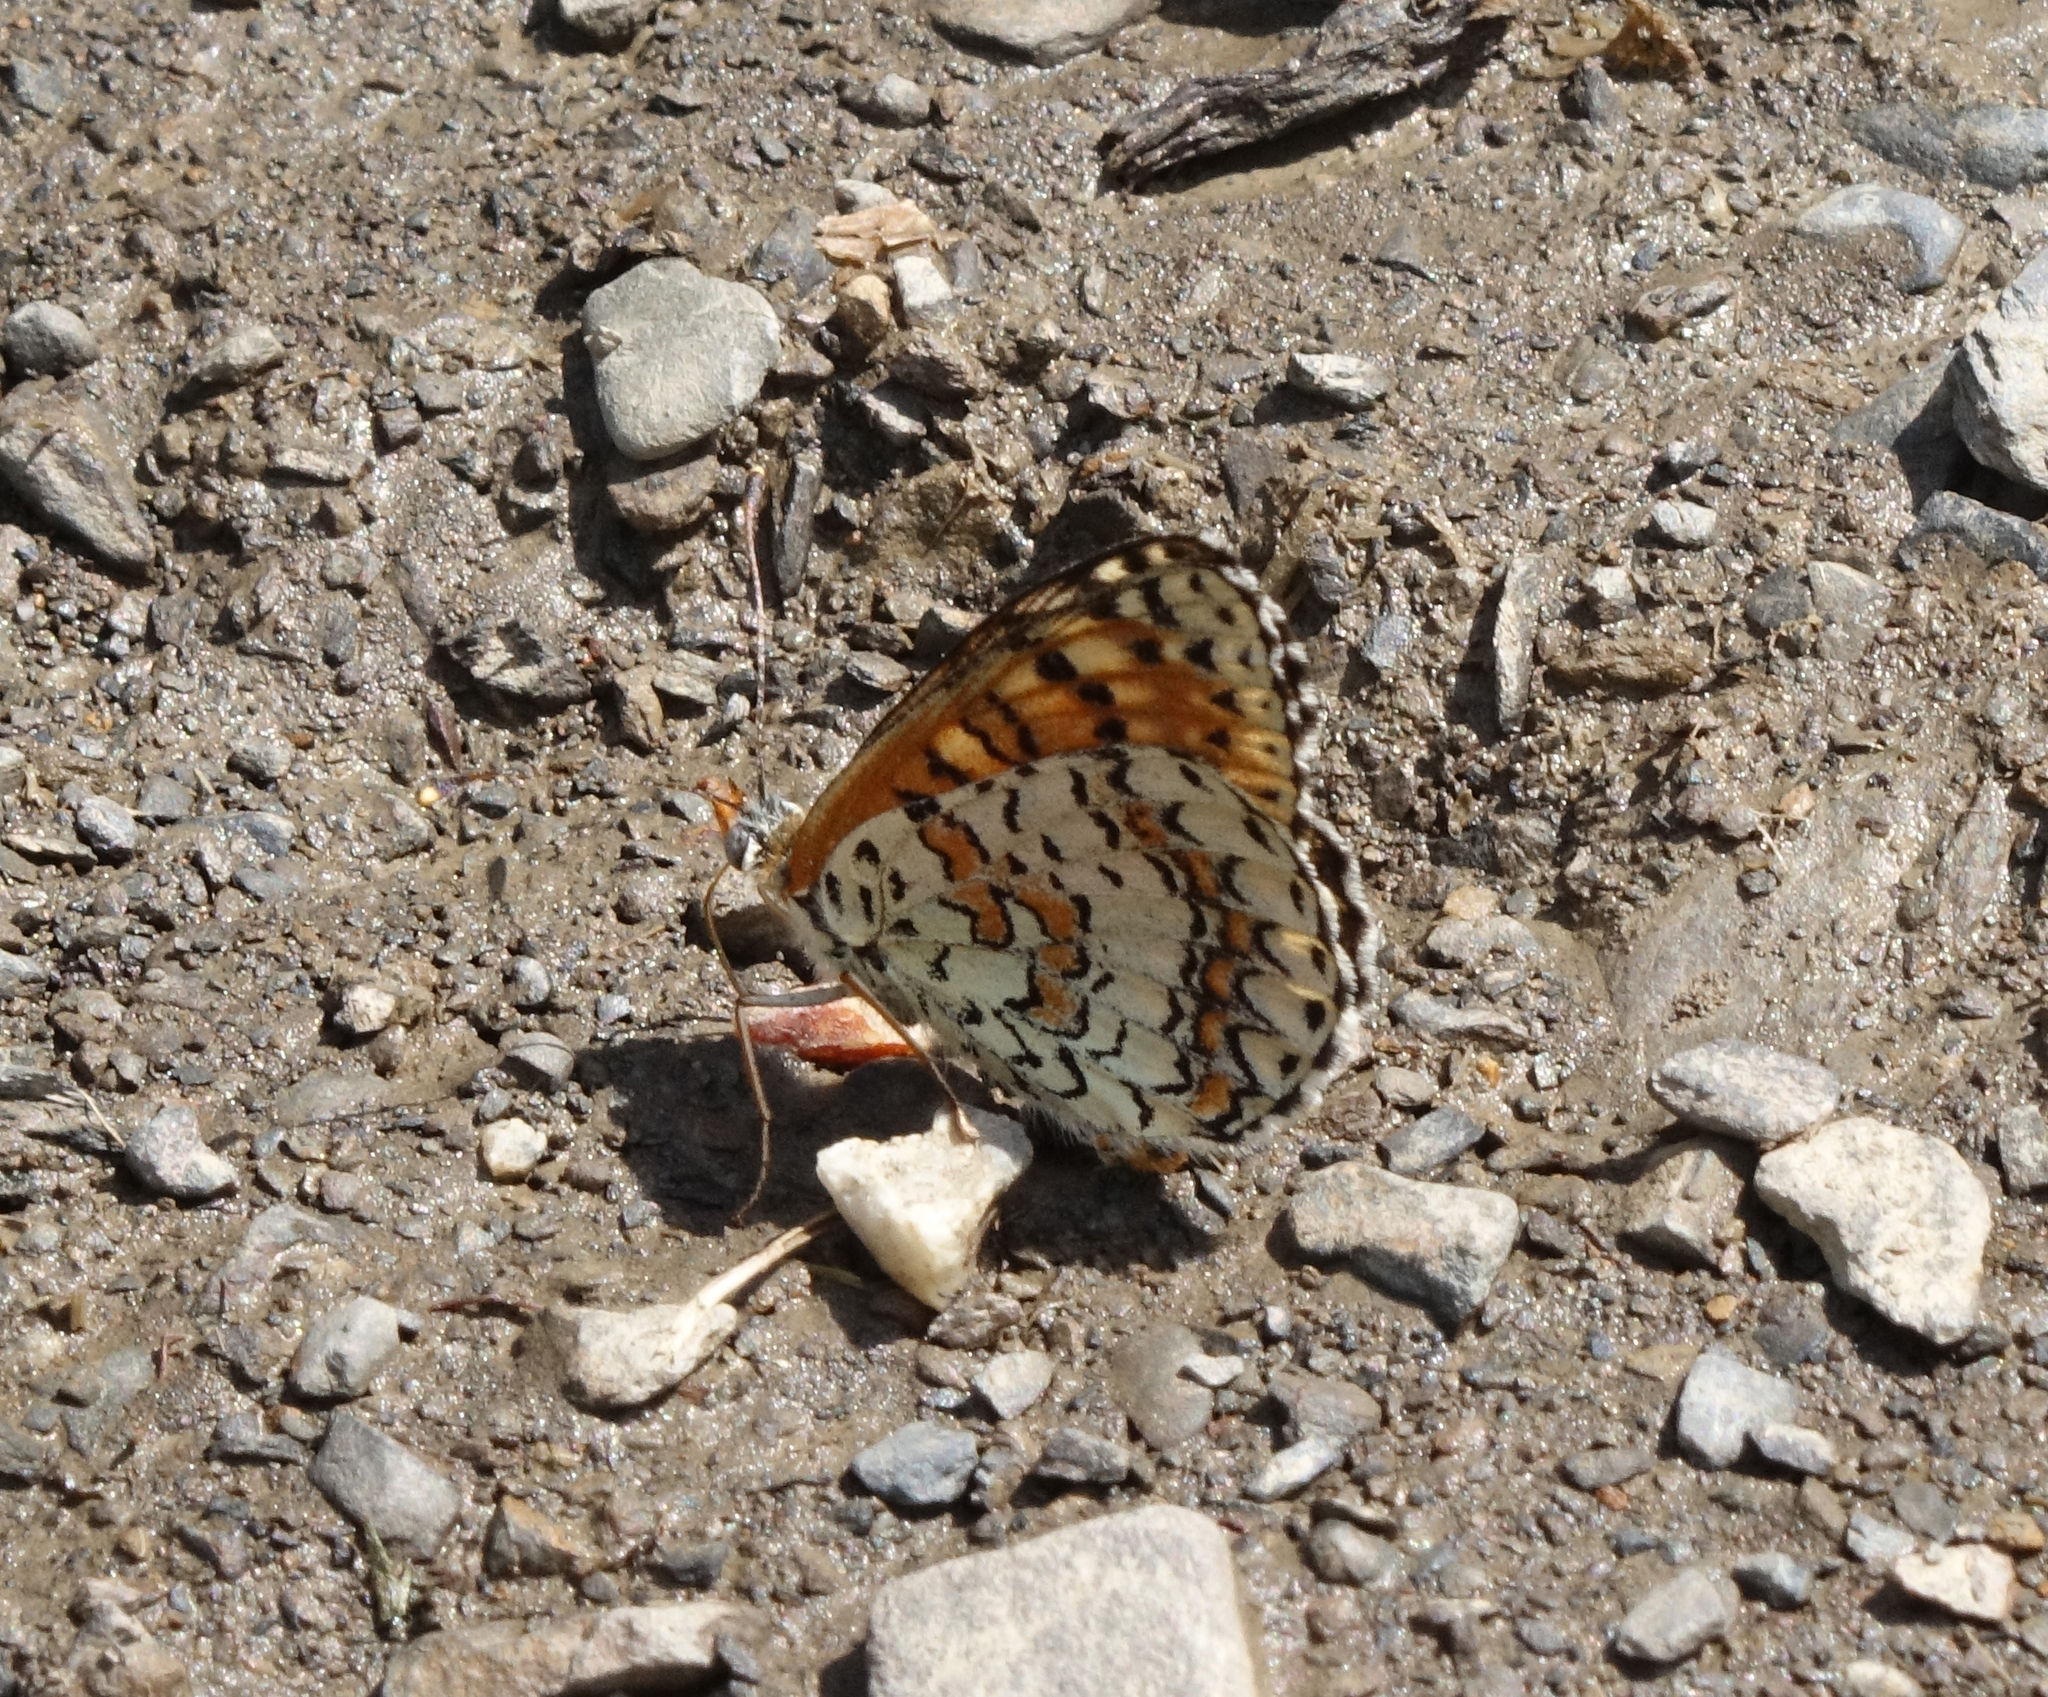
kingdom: Animalia
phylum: Arthropoda
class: Insecta
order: Lepidoptera
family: Nymphalidae
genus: Melitaea
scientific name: Melitaea cinxia
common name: Glanville fritillary
